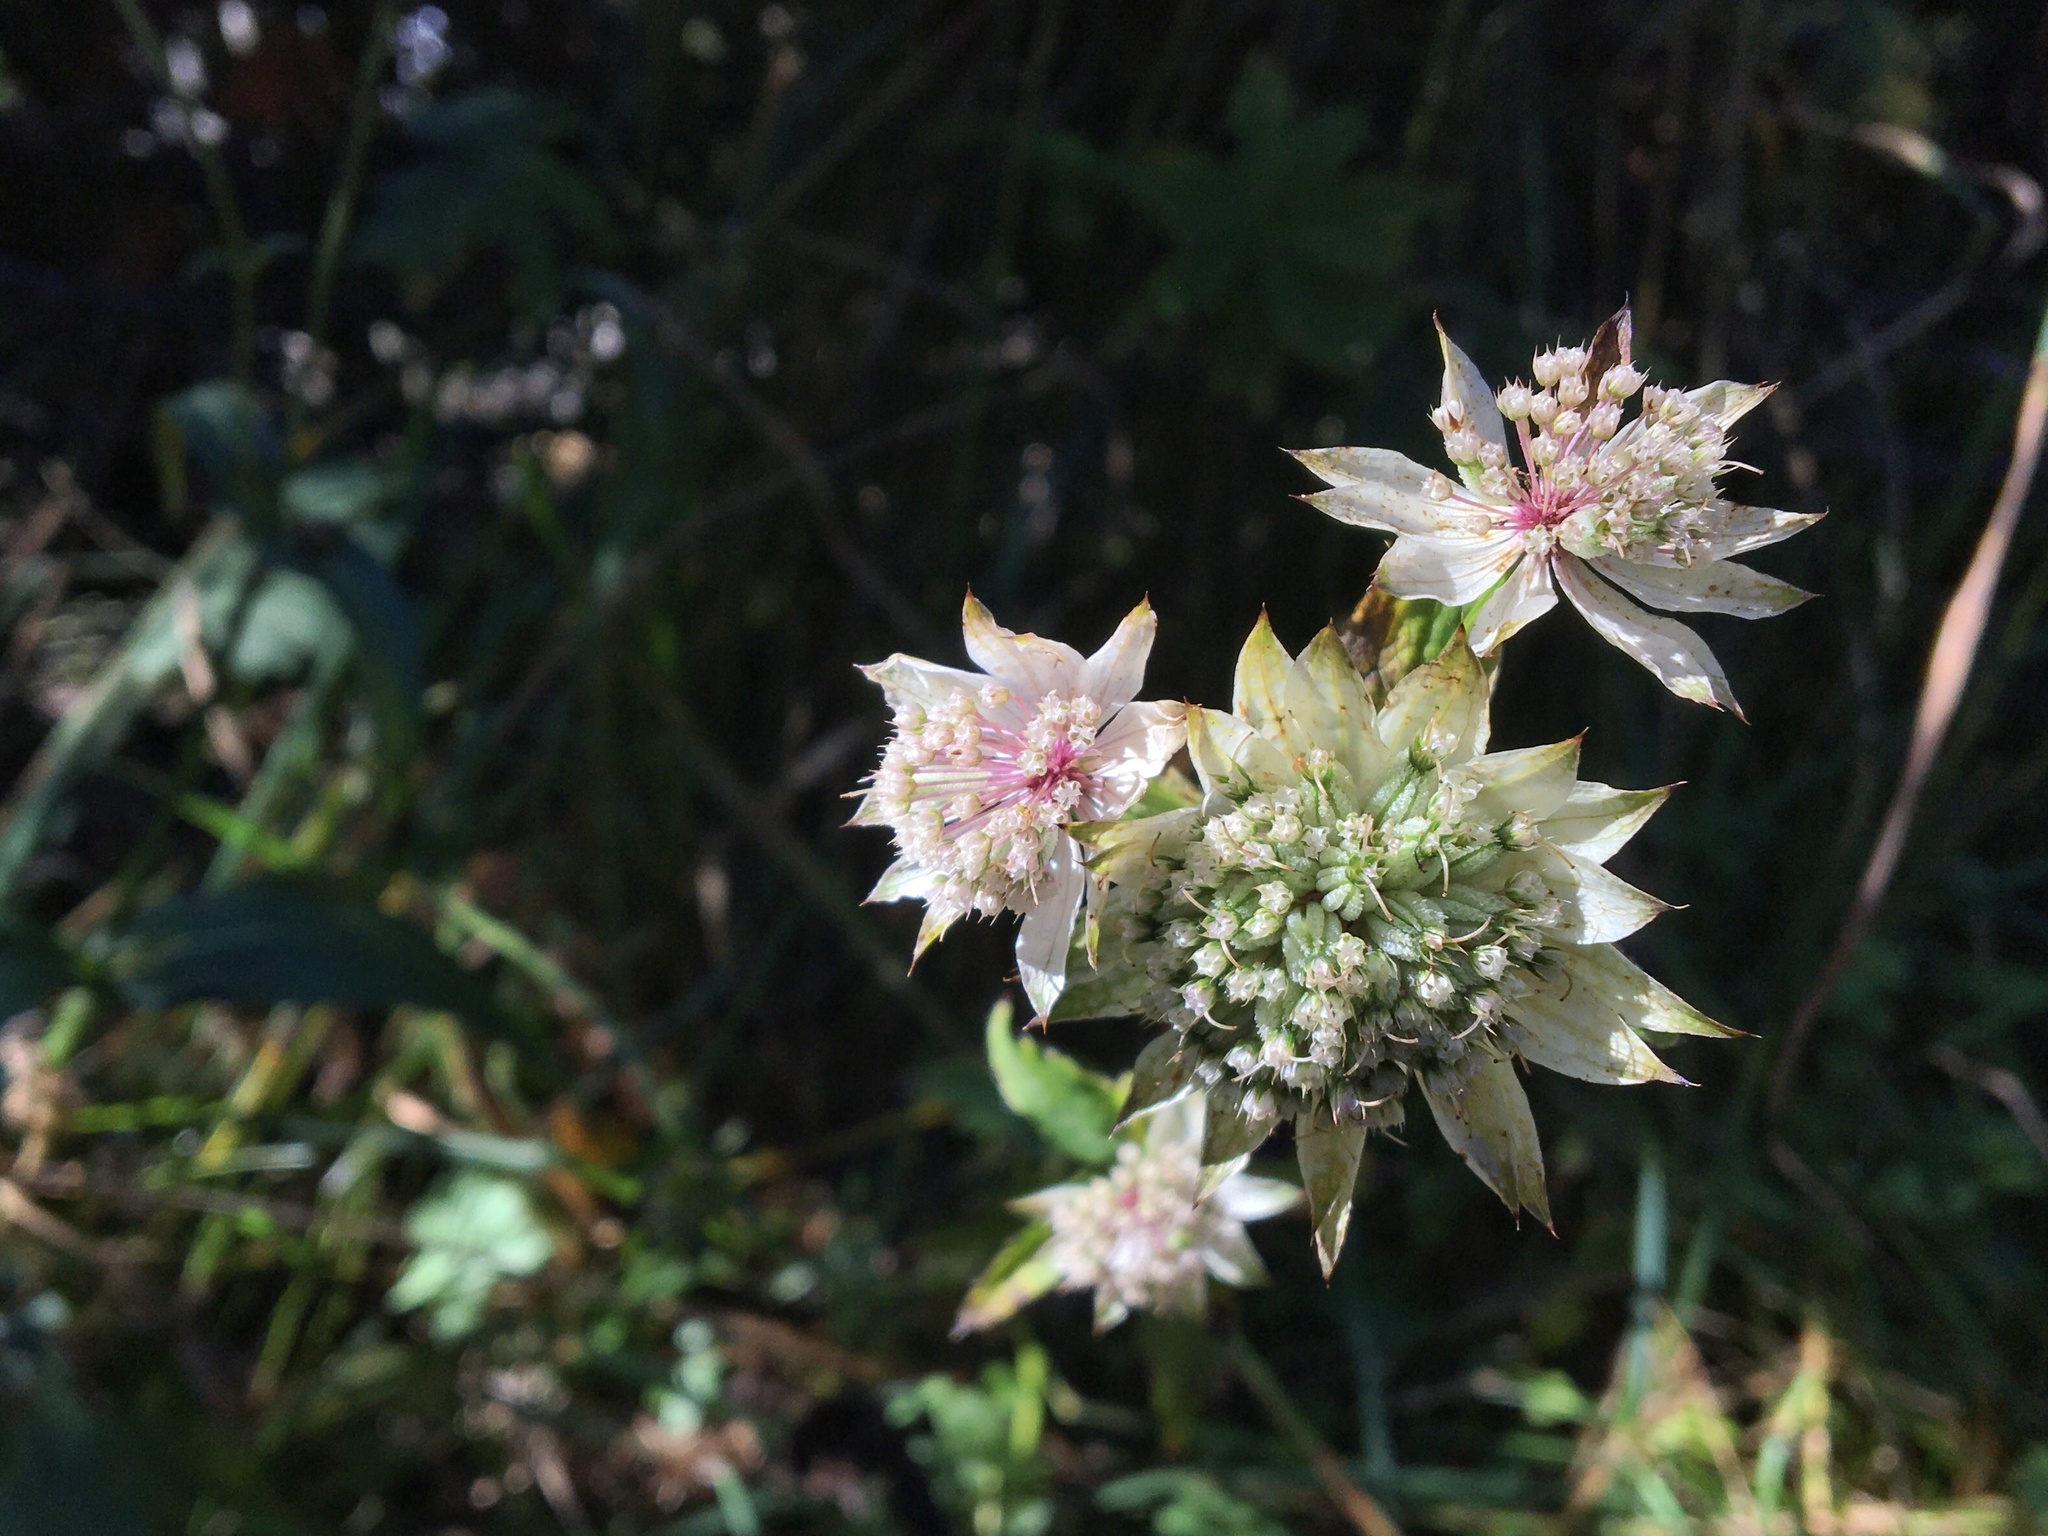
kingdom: Plantae
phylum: Tracheophyta
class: Magnoliopsida
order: Apiales
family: Apiaceae
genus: Astrantia
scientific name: Astrantia major
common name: Greater masterwort
